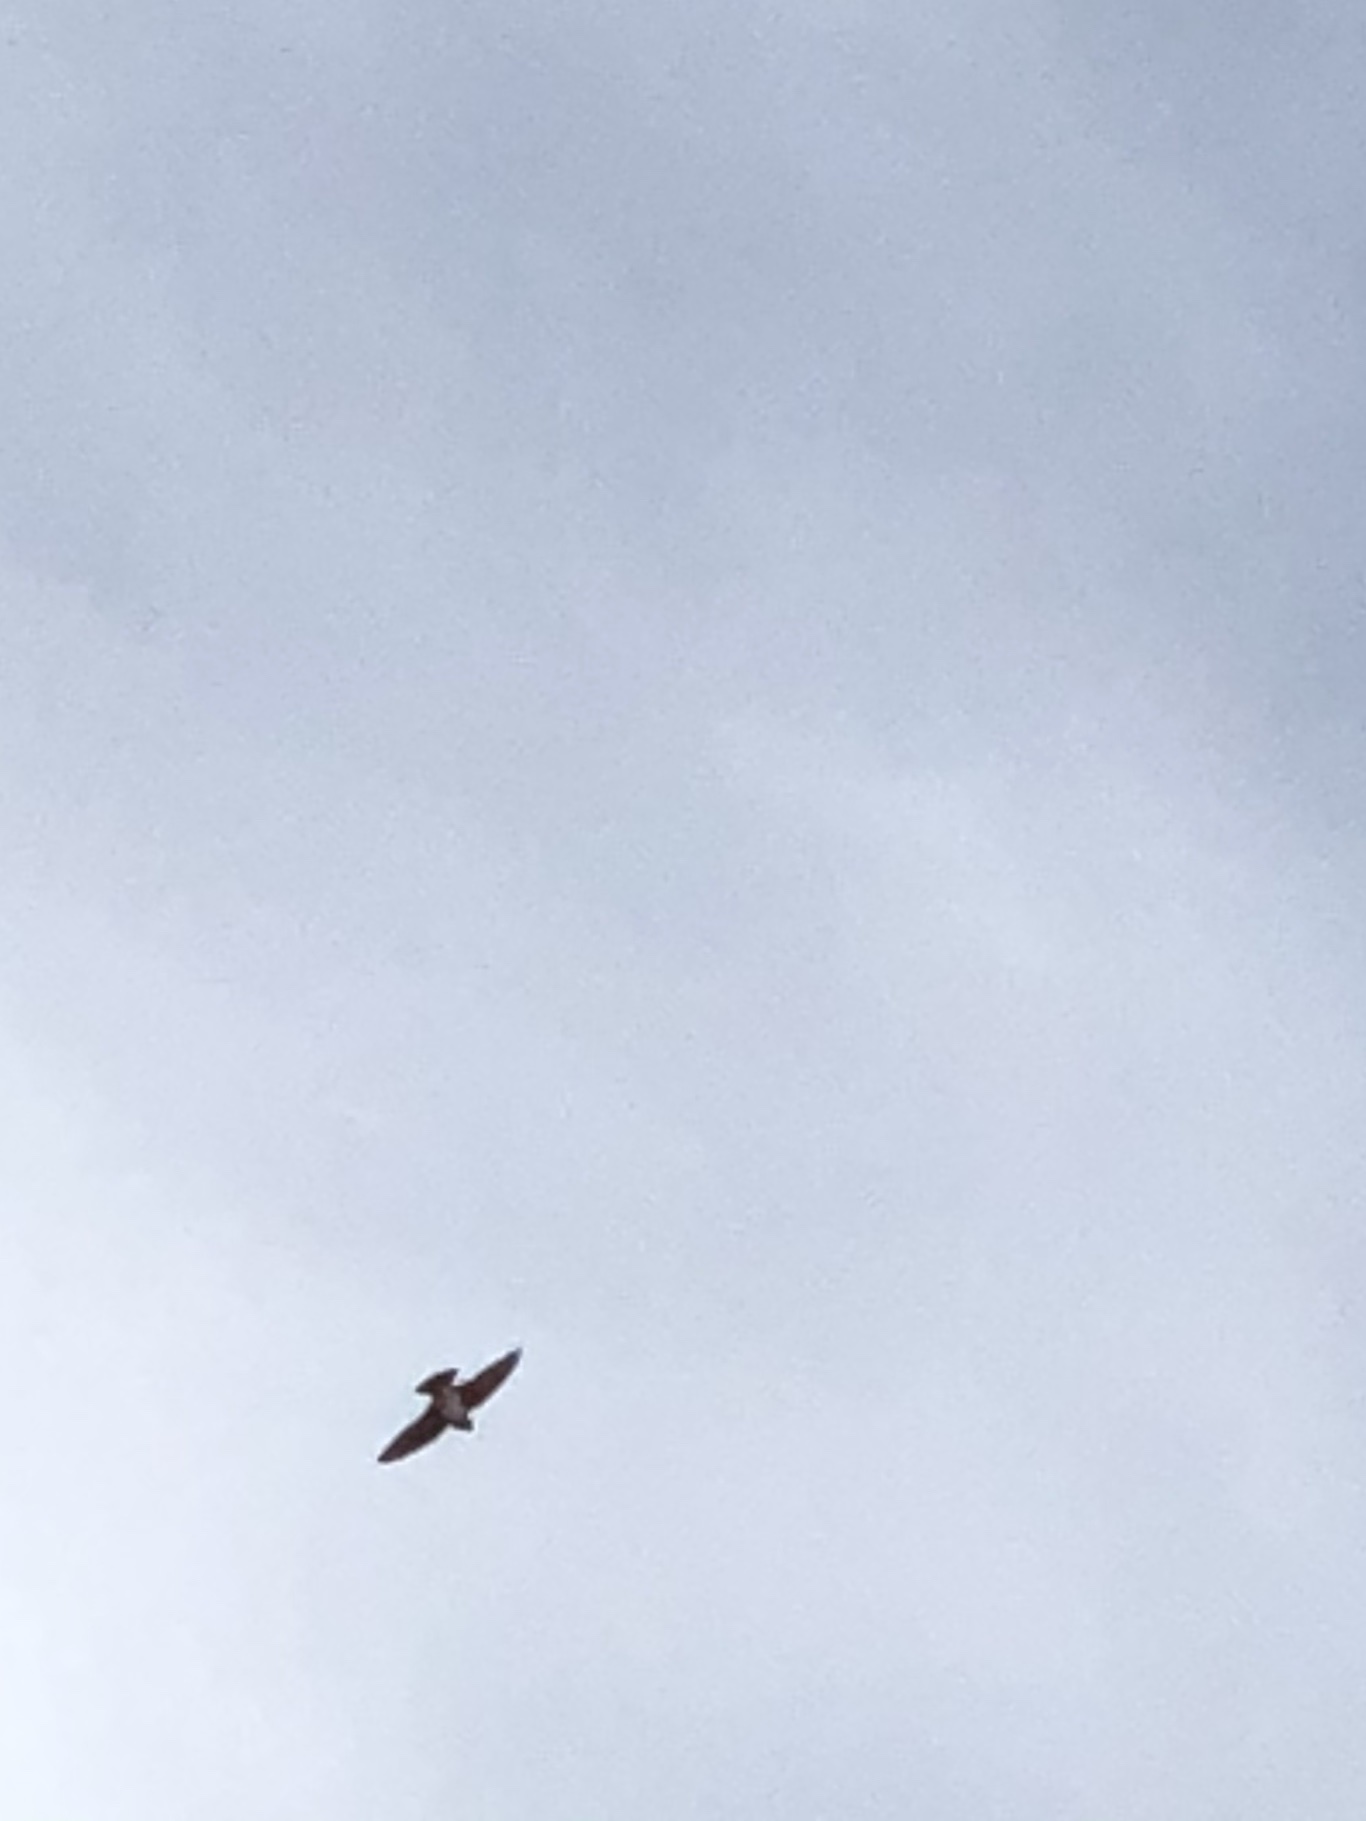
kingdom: Animalia
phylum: Chordata
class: Aves
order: Passeriformes
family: Hirundinidae
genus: Tachycineta
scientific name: Tachycineta bicolor
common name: Tree swallow
